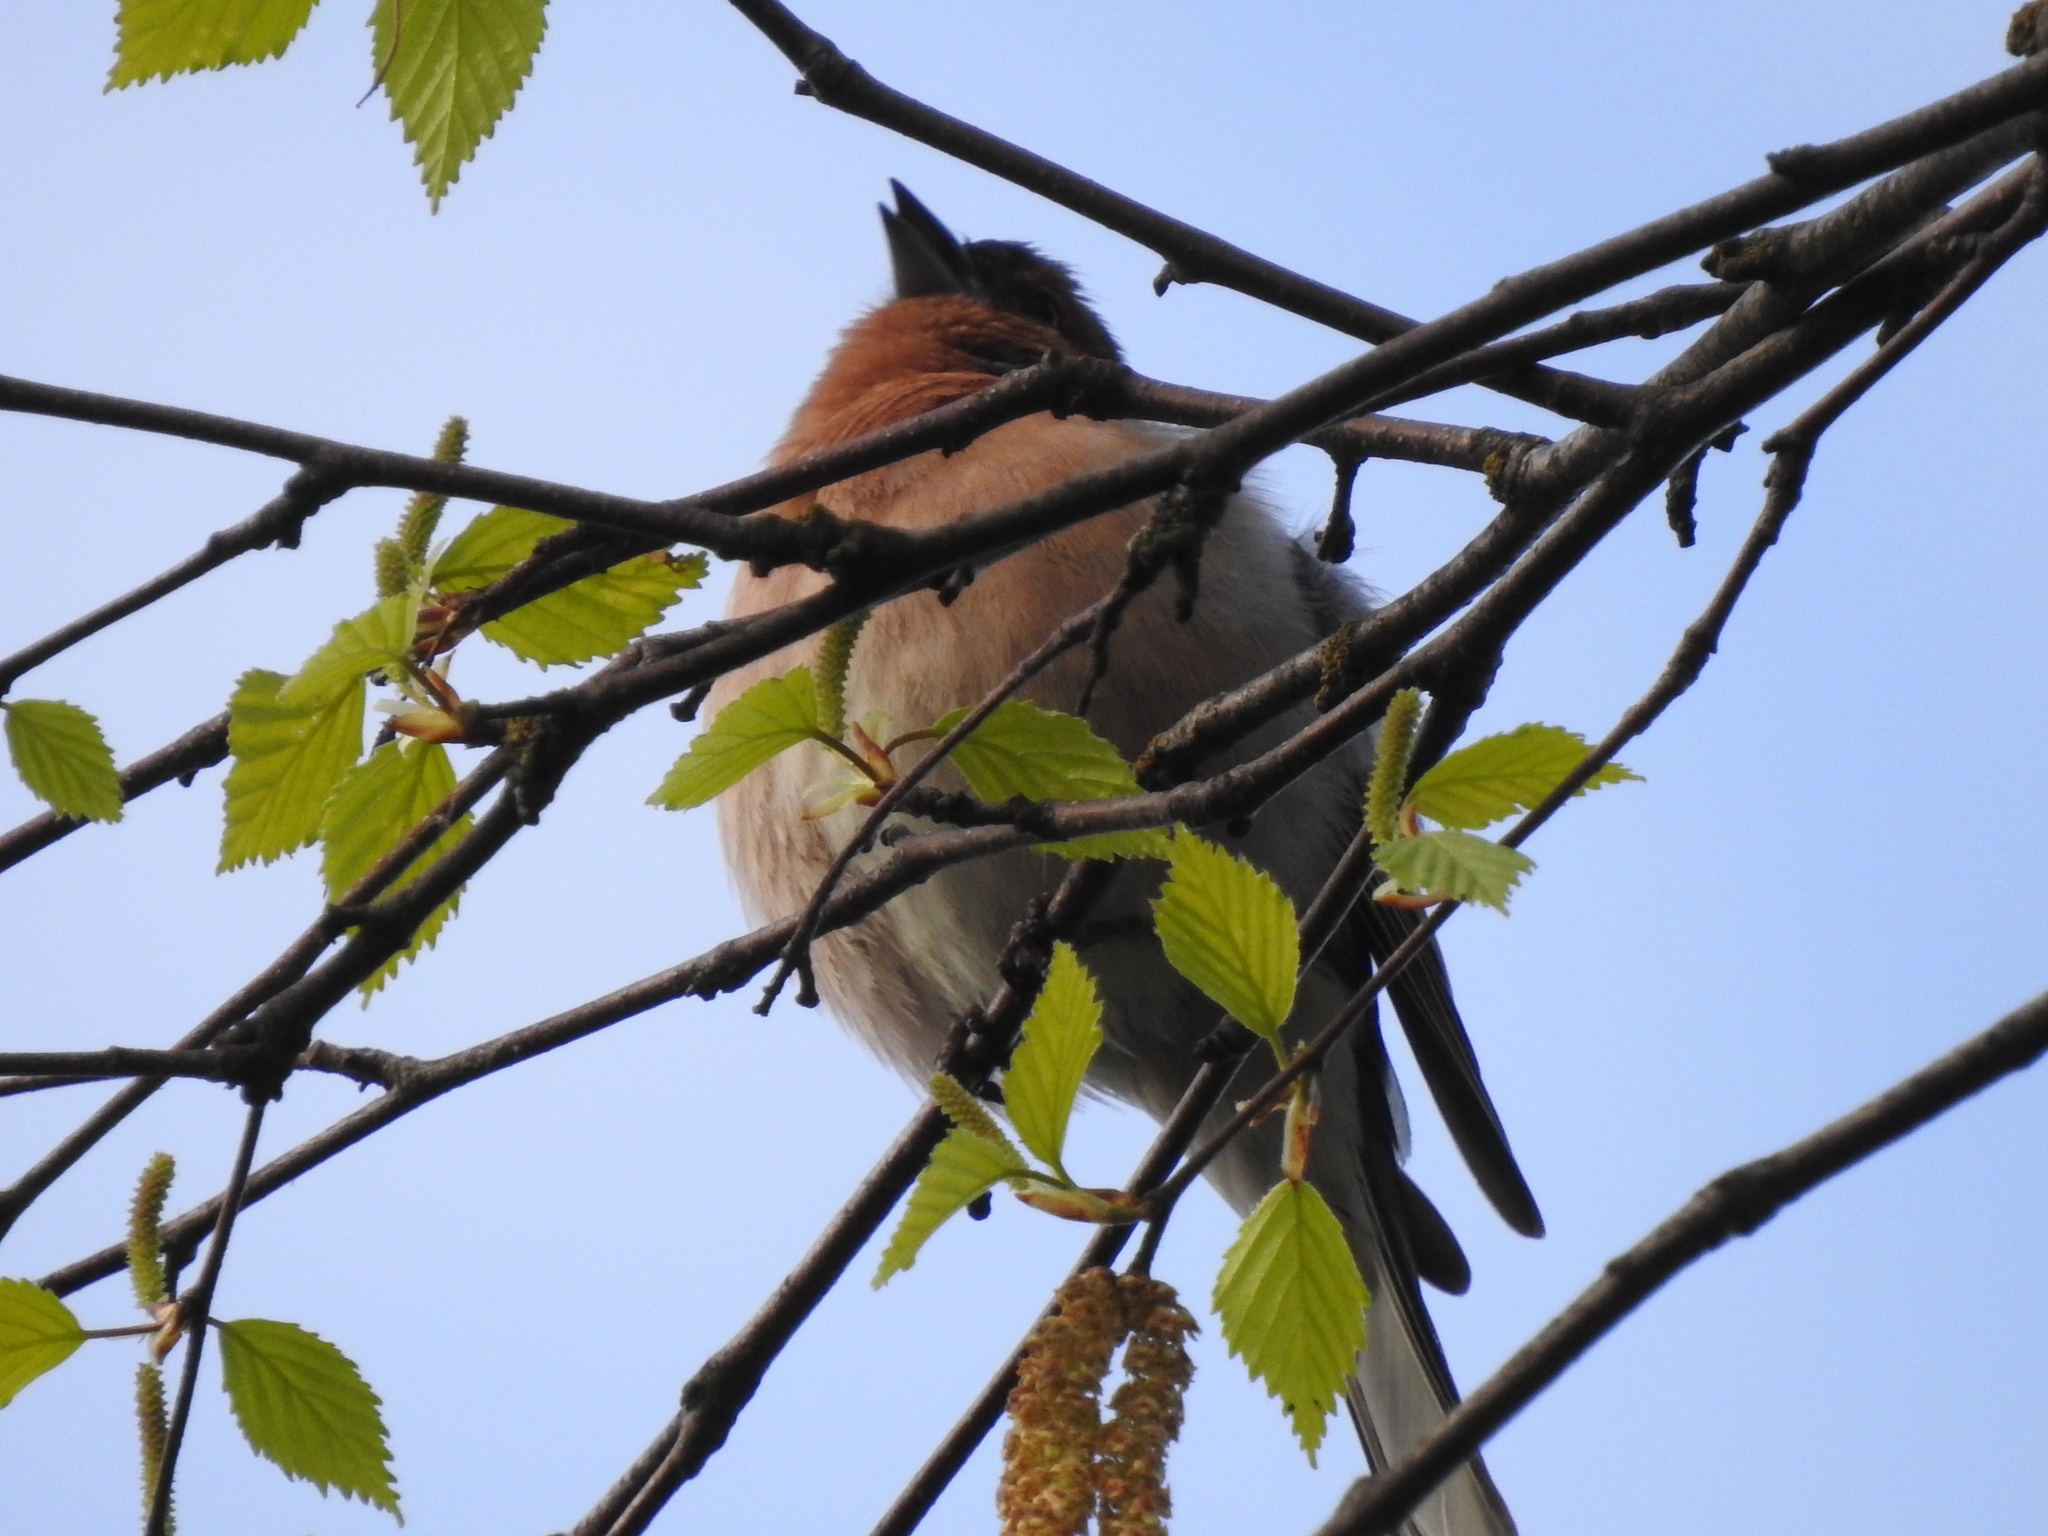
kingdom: Animalia
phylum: Chordata
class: Aves
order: Passeriformes
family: Fringillidae
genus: Fringilla
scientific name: Fringilla coelebs
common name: Common chaffinch
